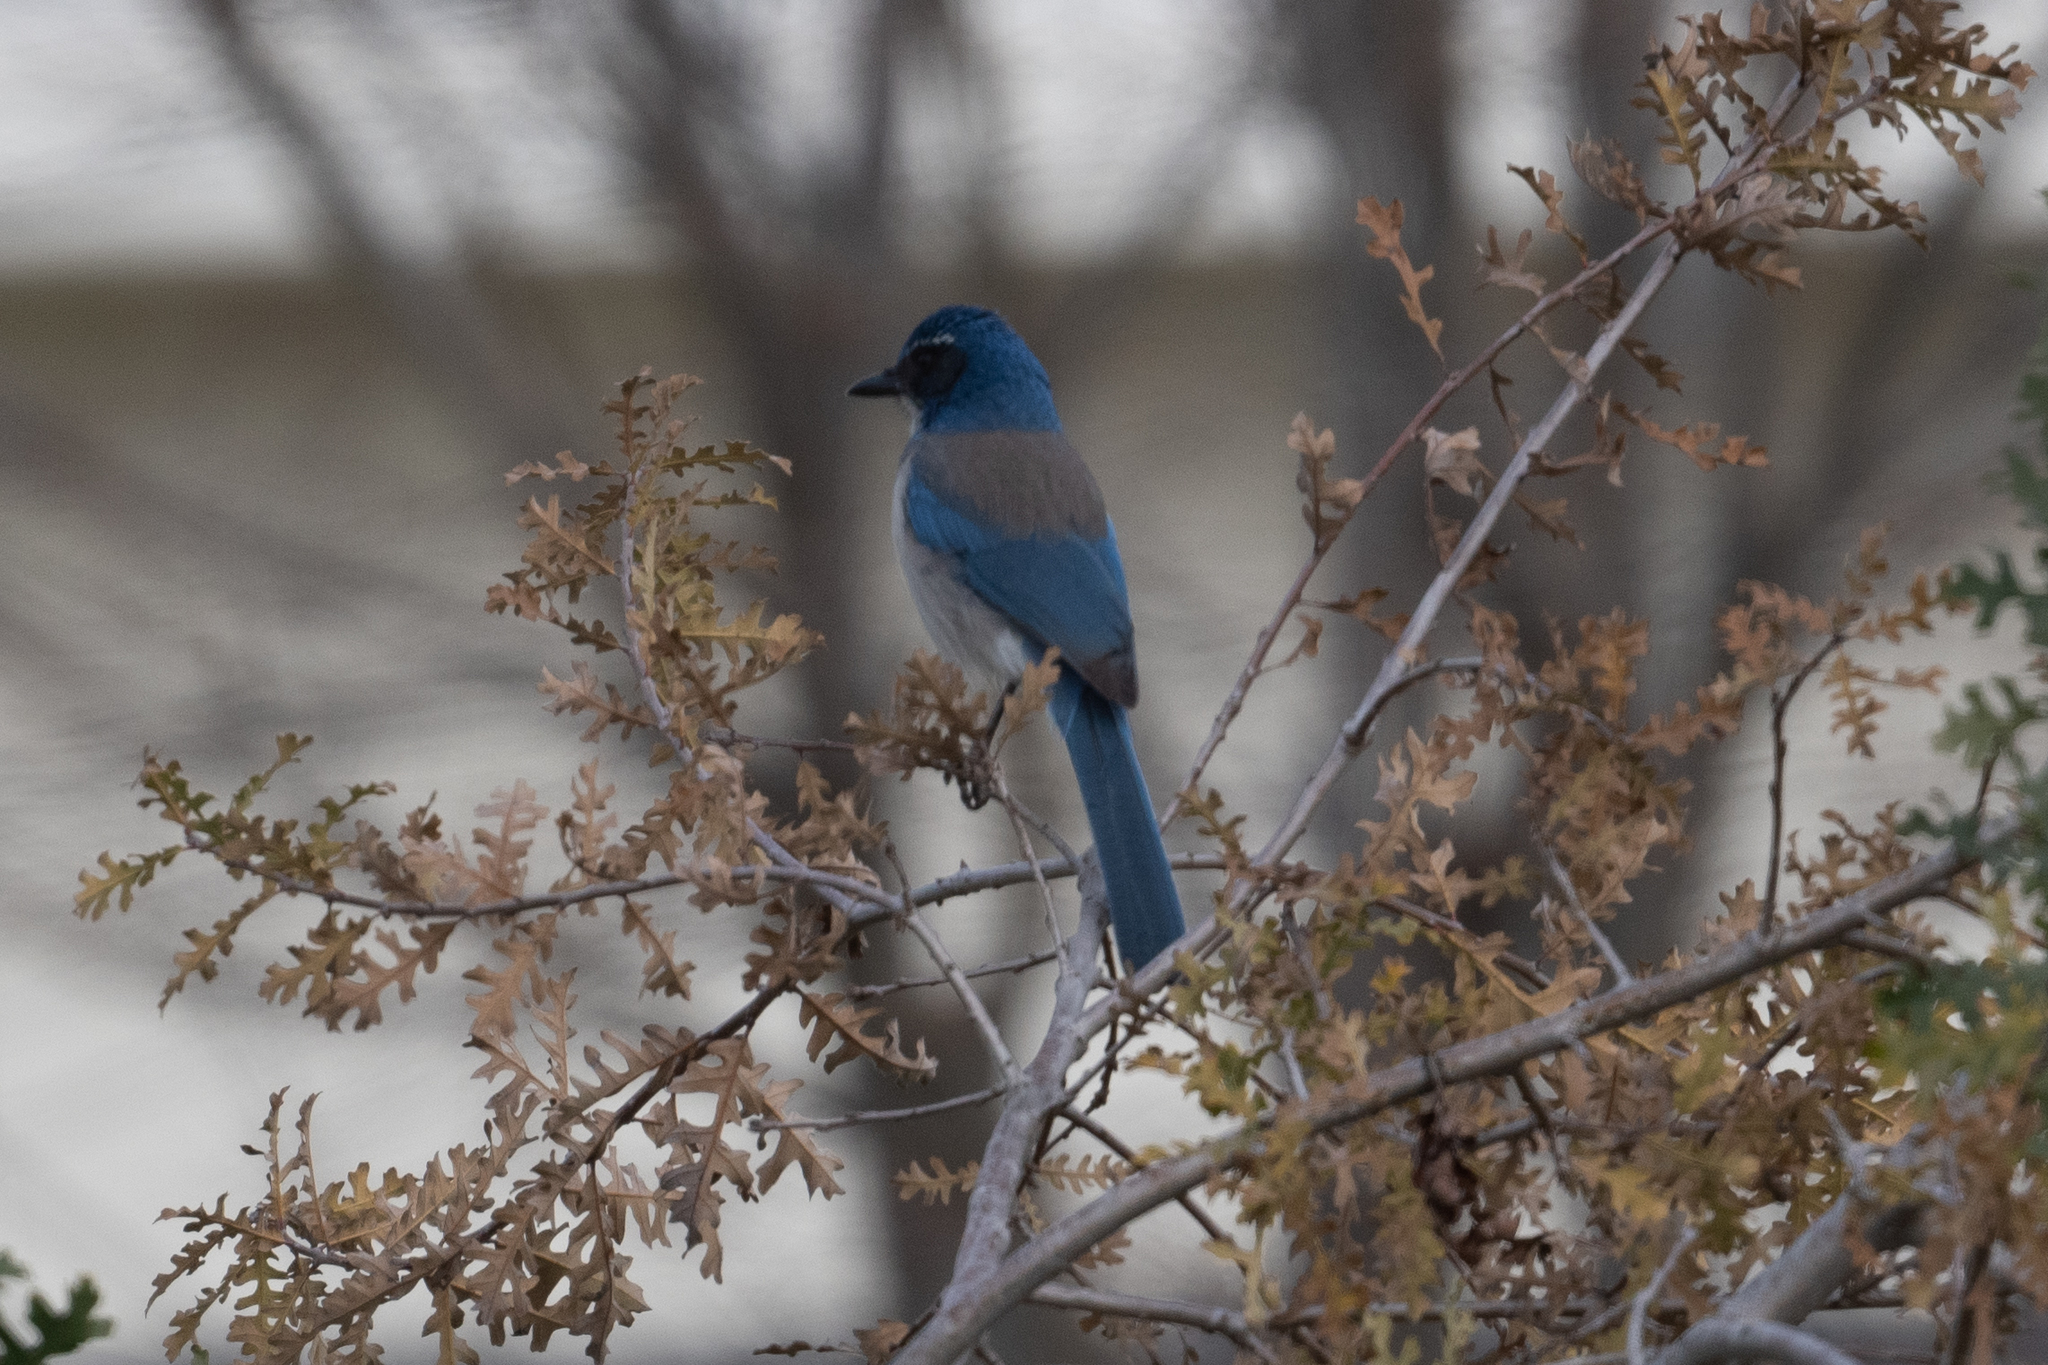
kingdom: Animalia
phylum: Chordata
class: Aves
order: Passeriformes
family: Corvidae
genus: Aphelocoma
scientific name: Aphelocoma californica
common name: California scrub-jay
